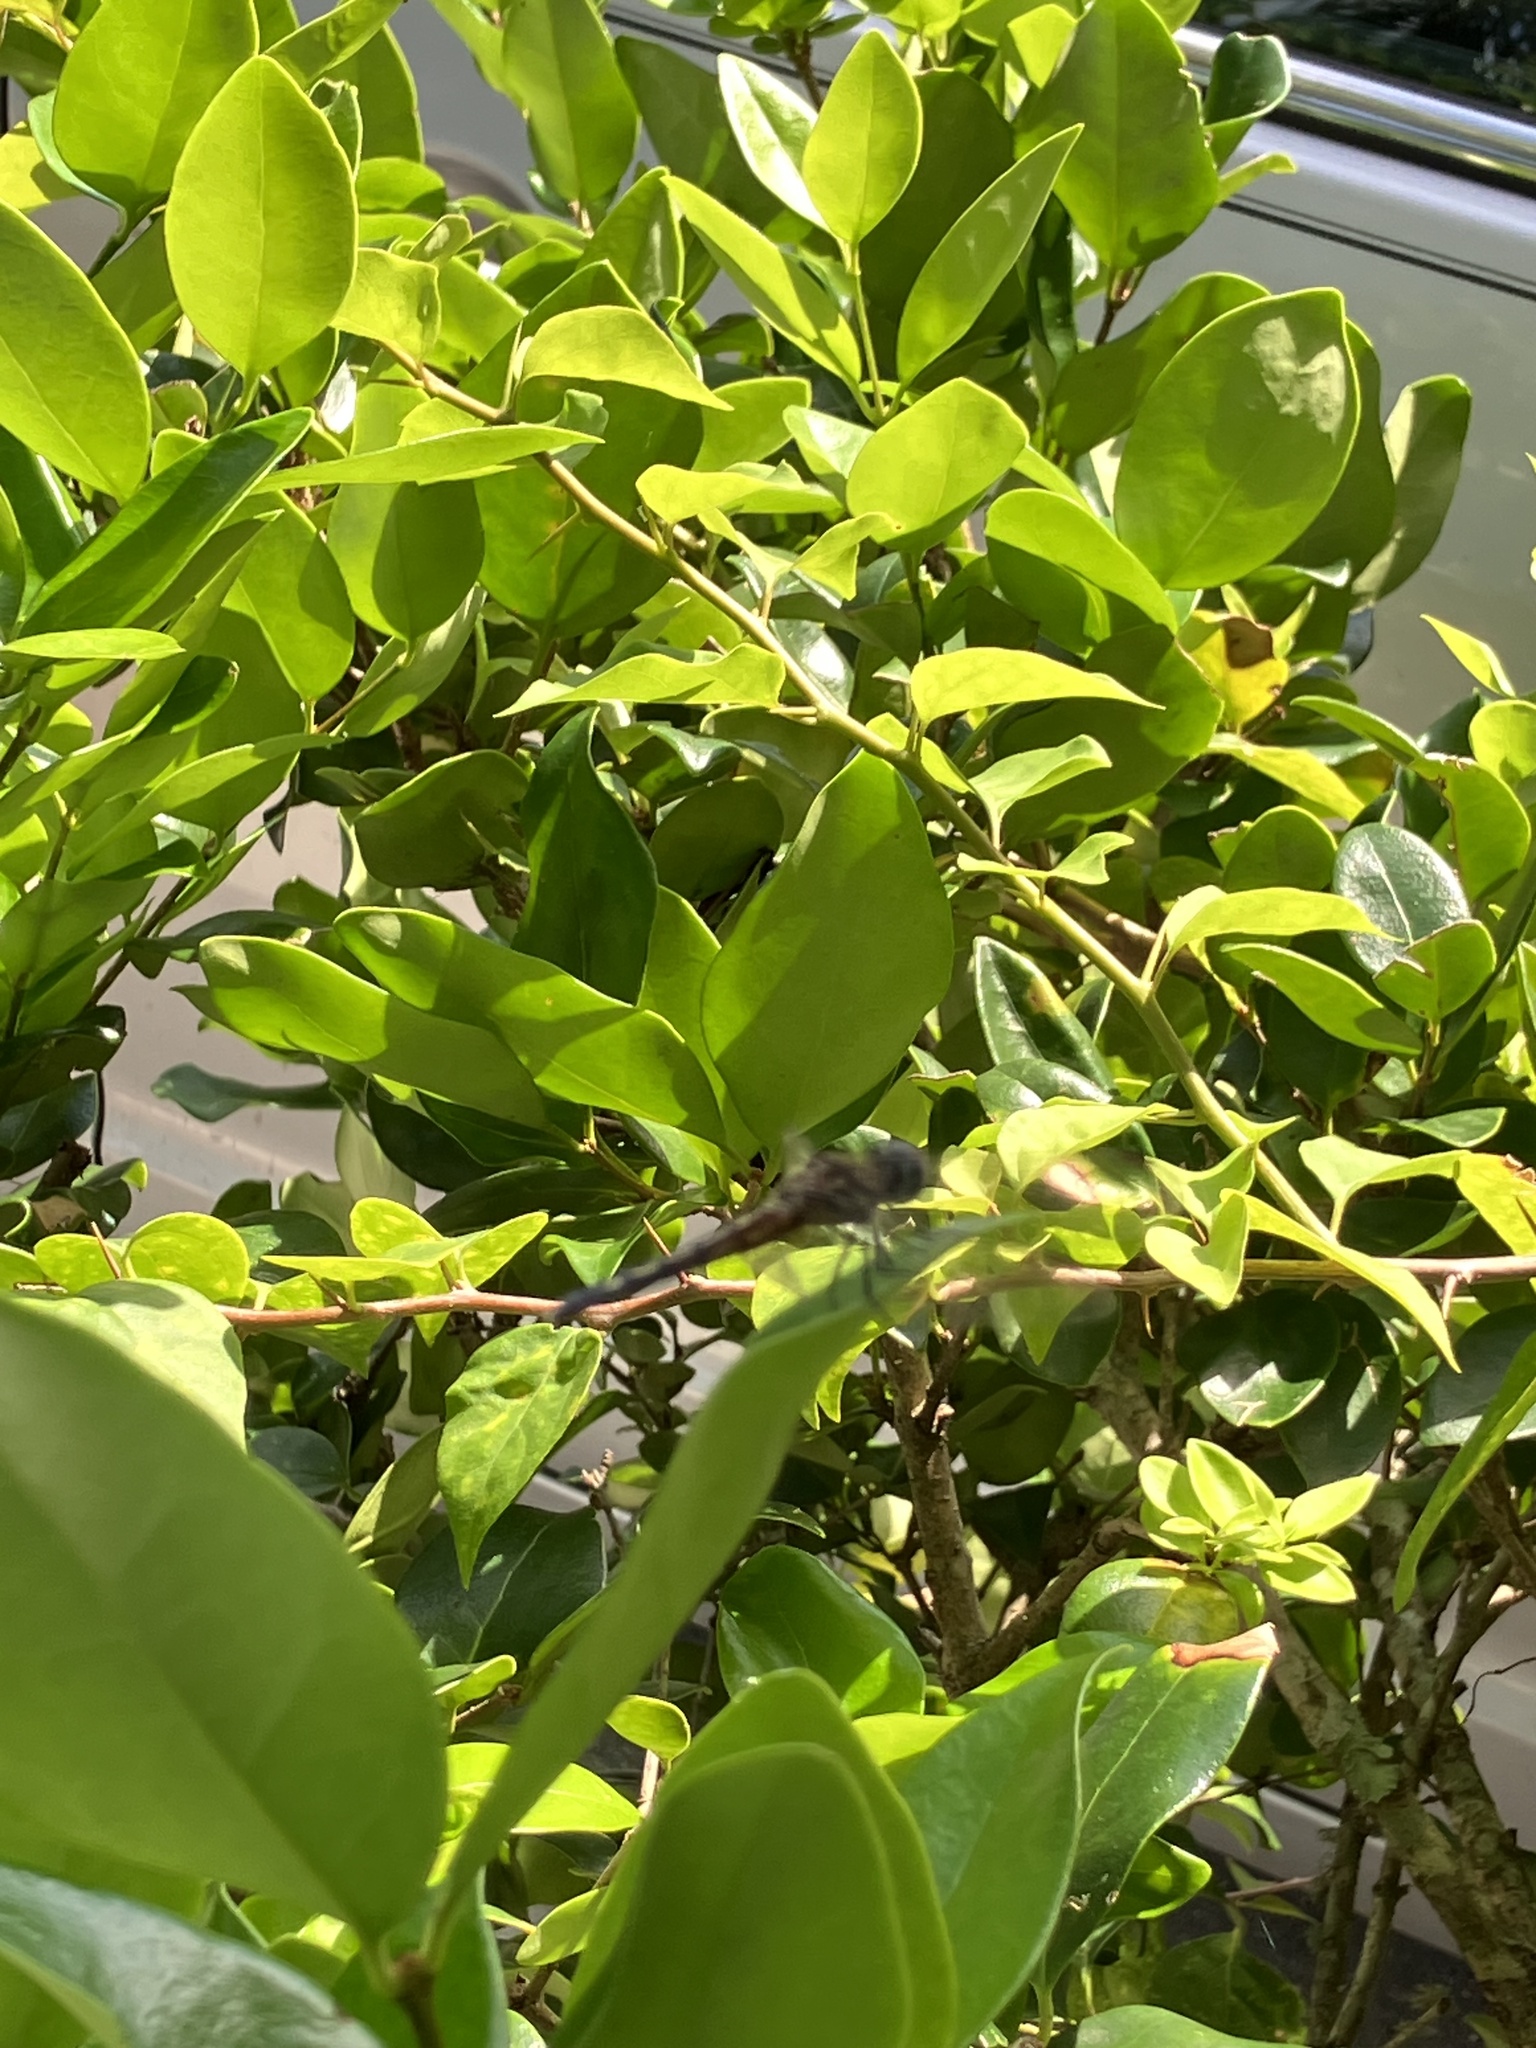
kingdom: Animalia
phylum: Arthropoda
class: Insecta
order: Odonata
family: Libellulidae
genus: Pachydiplax
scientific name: Pachydiplax longipennis
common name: Blue dasher
